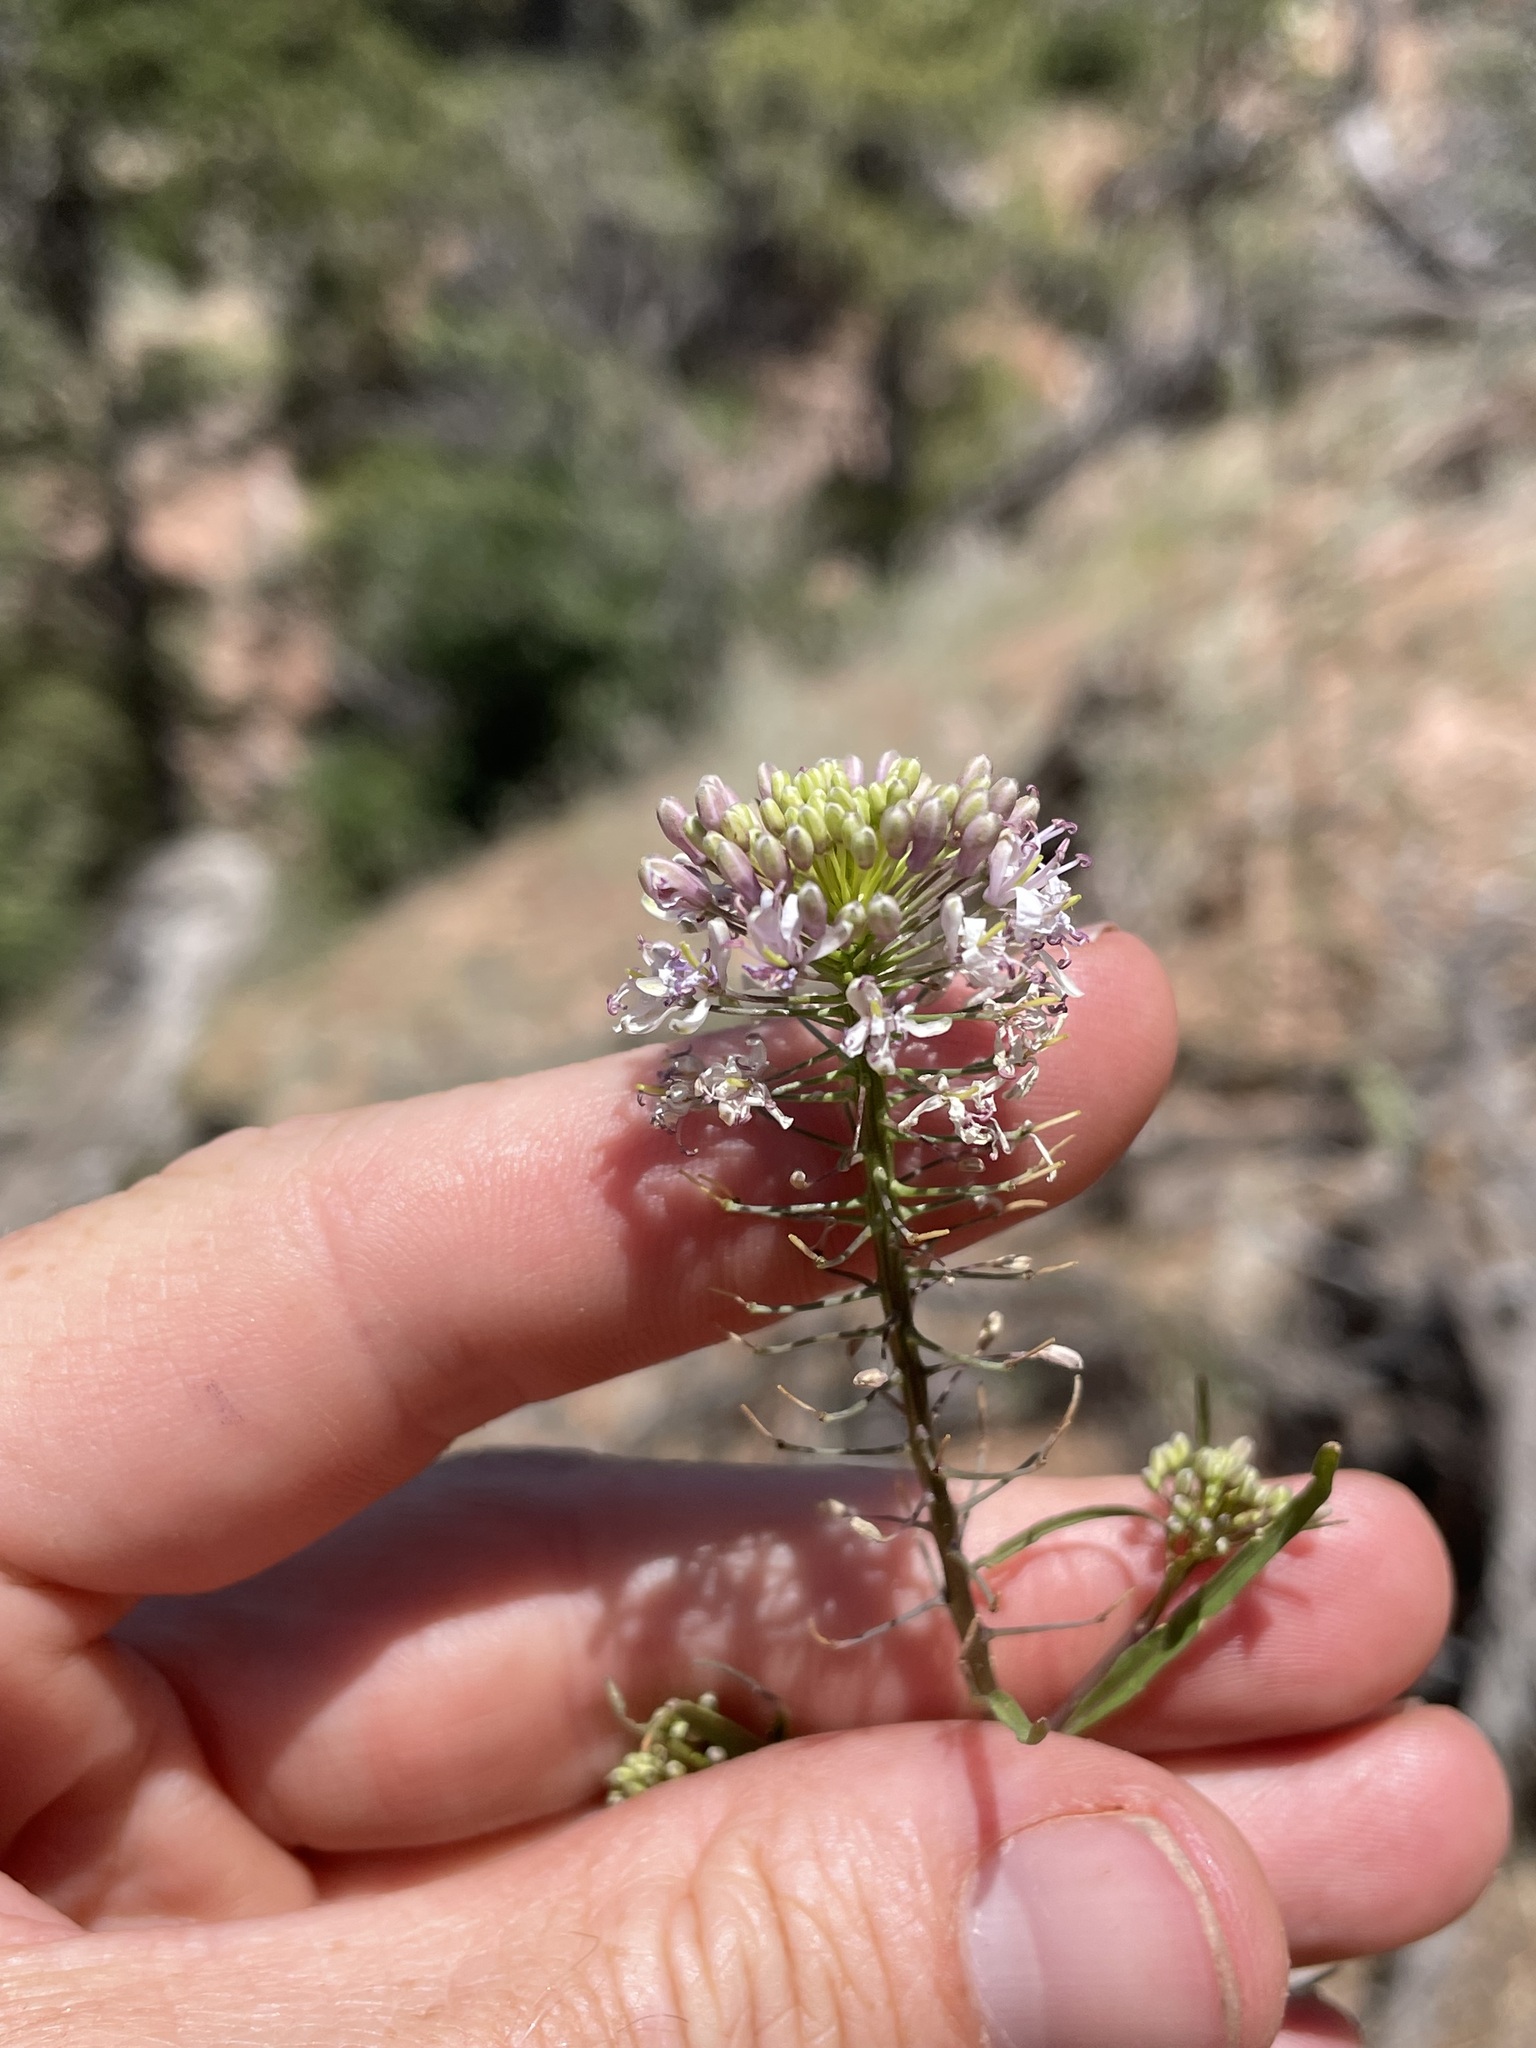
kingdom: Plantae
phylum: Tracheophyta
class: Magnoliopsida
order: Brassicales
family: Brassicaceae
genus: Thelypodium
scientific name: Thelypodium wrightii
